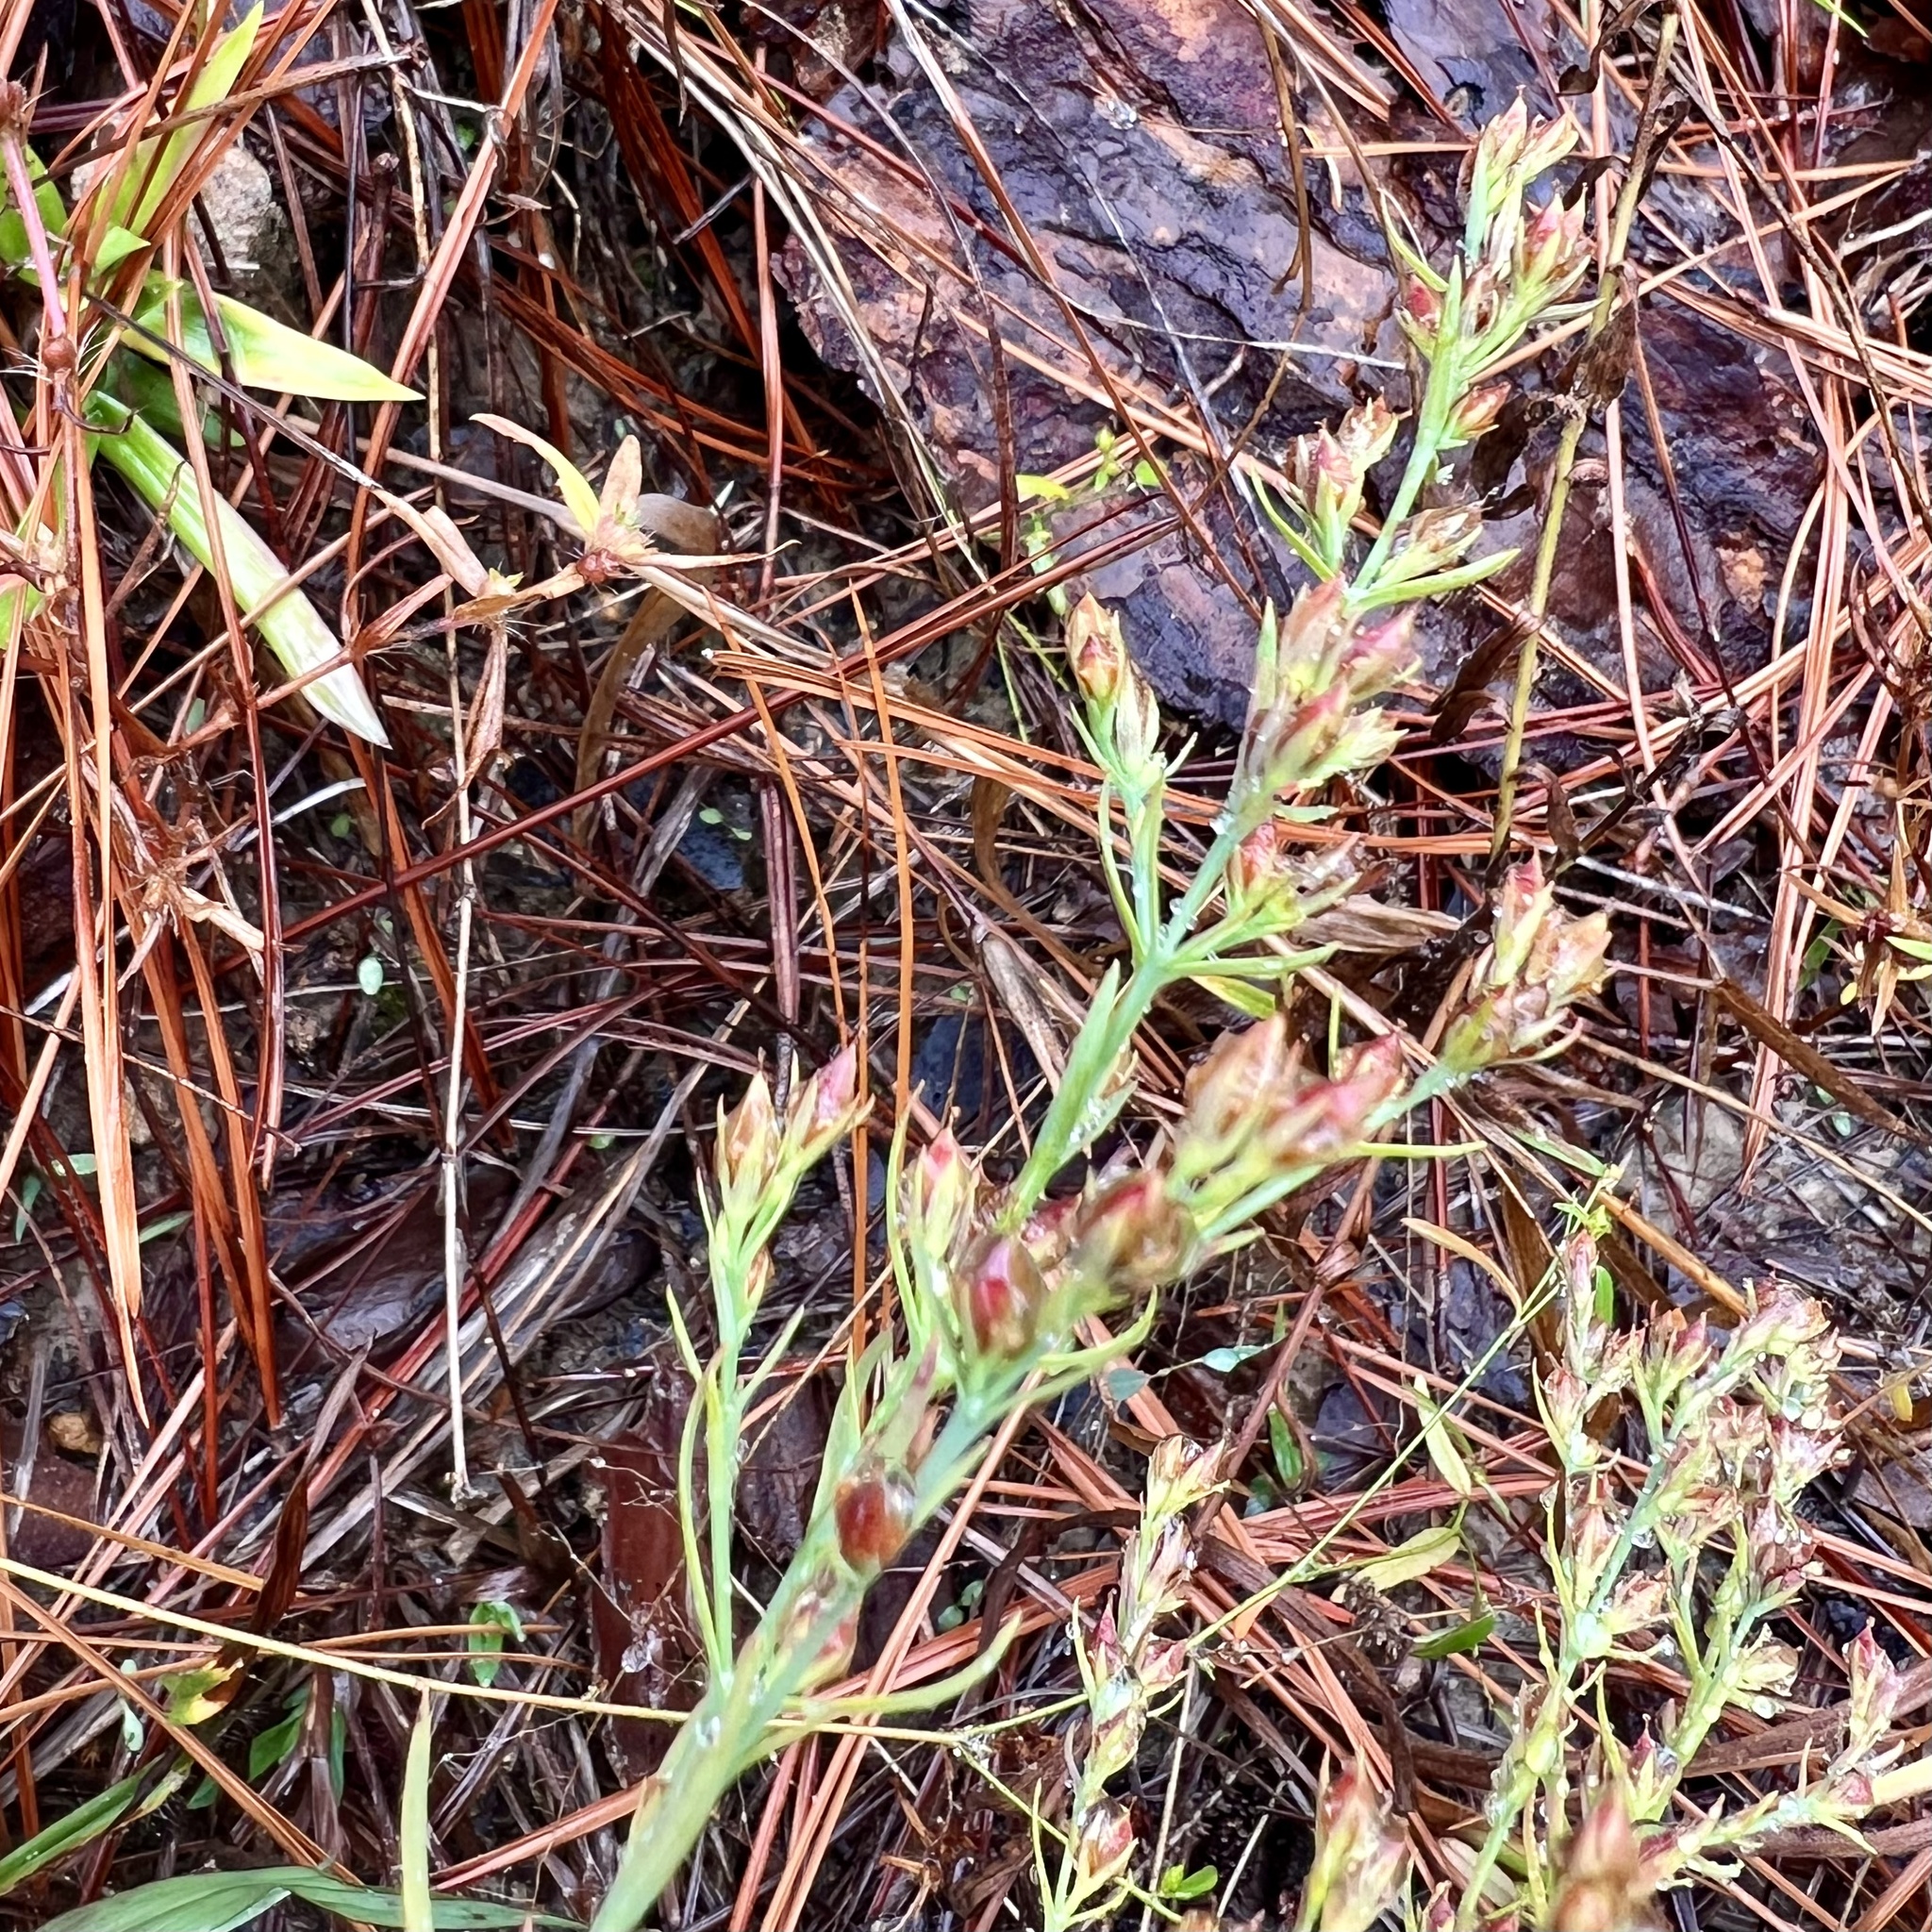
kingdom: Plantae
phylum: Tracheophyta
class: Magnoliopsida
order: Malpighiales
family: Hypericaceae
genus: Hypericum
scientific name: Hypericum drummondii
